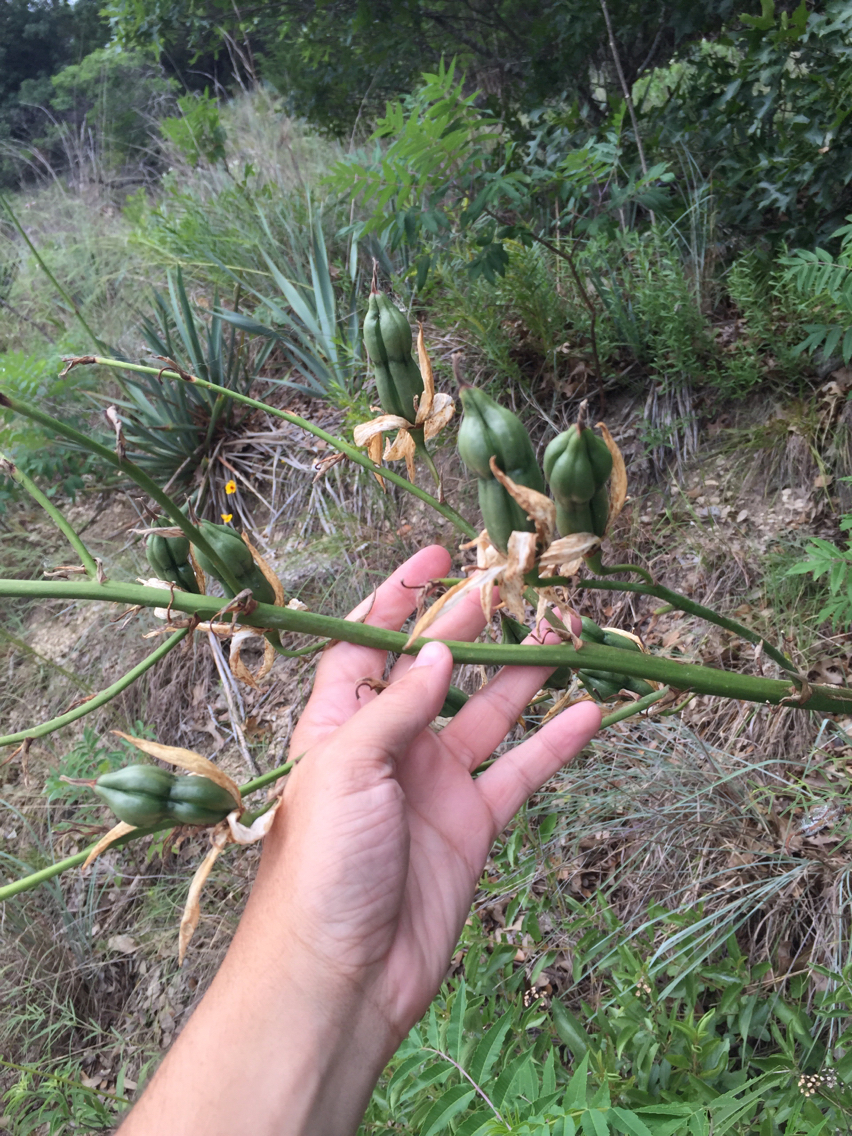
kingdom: Plantae
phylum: Tracheophyta
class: Liliopsida
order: Asparagales
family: Asparagaceae
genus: Yucca
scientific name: Yucca pallida
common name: Pale leaf yucca
